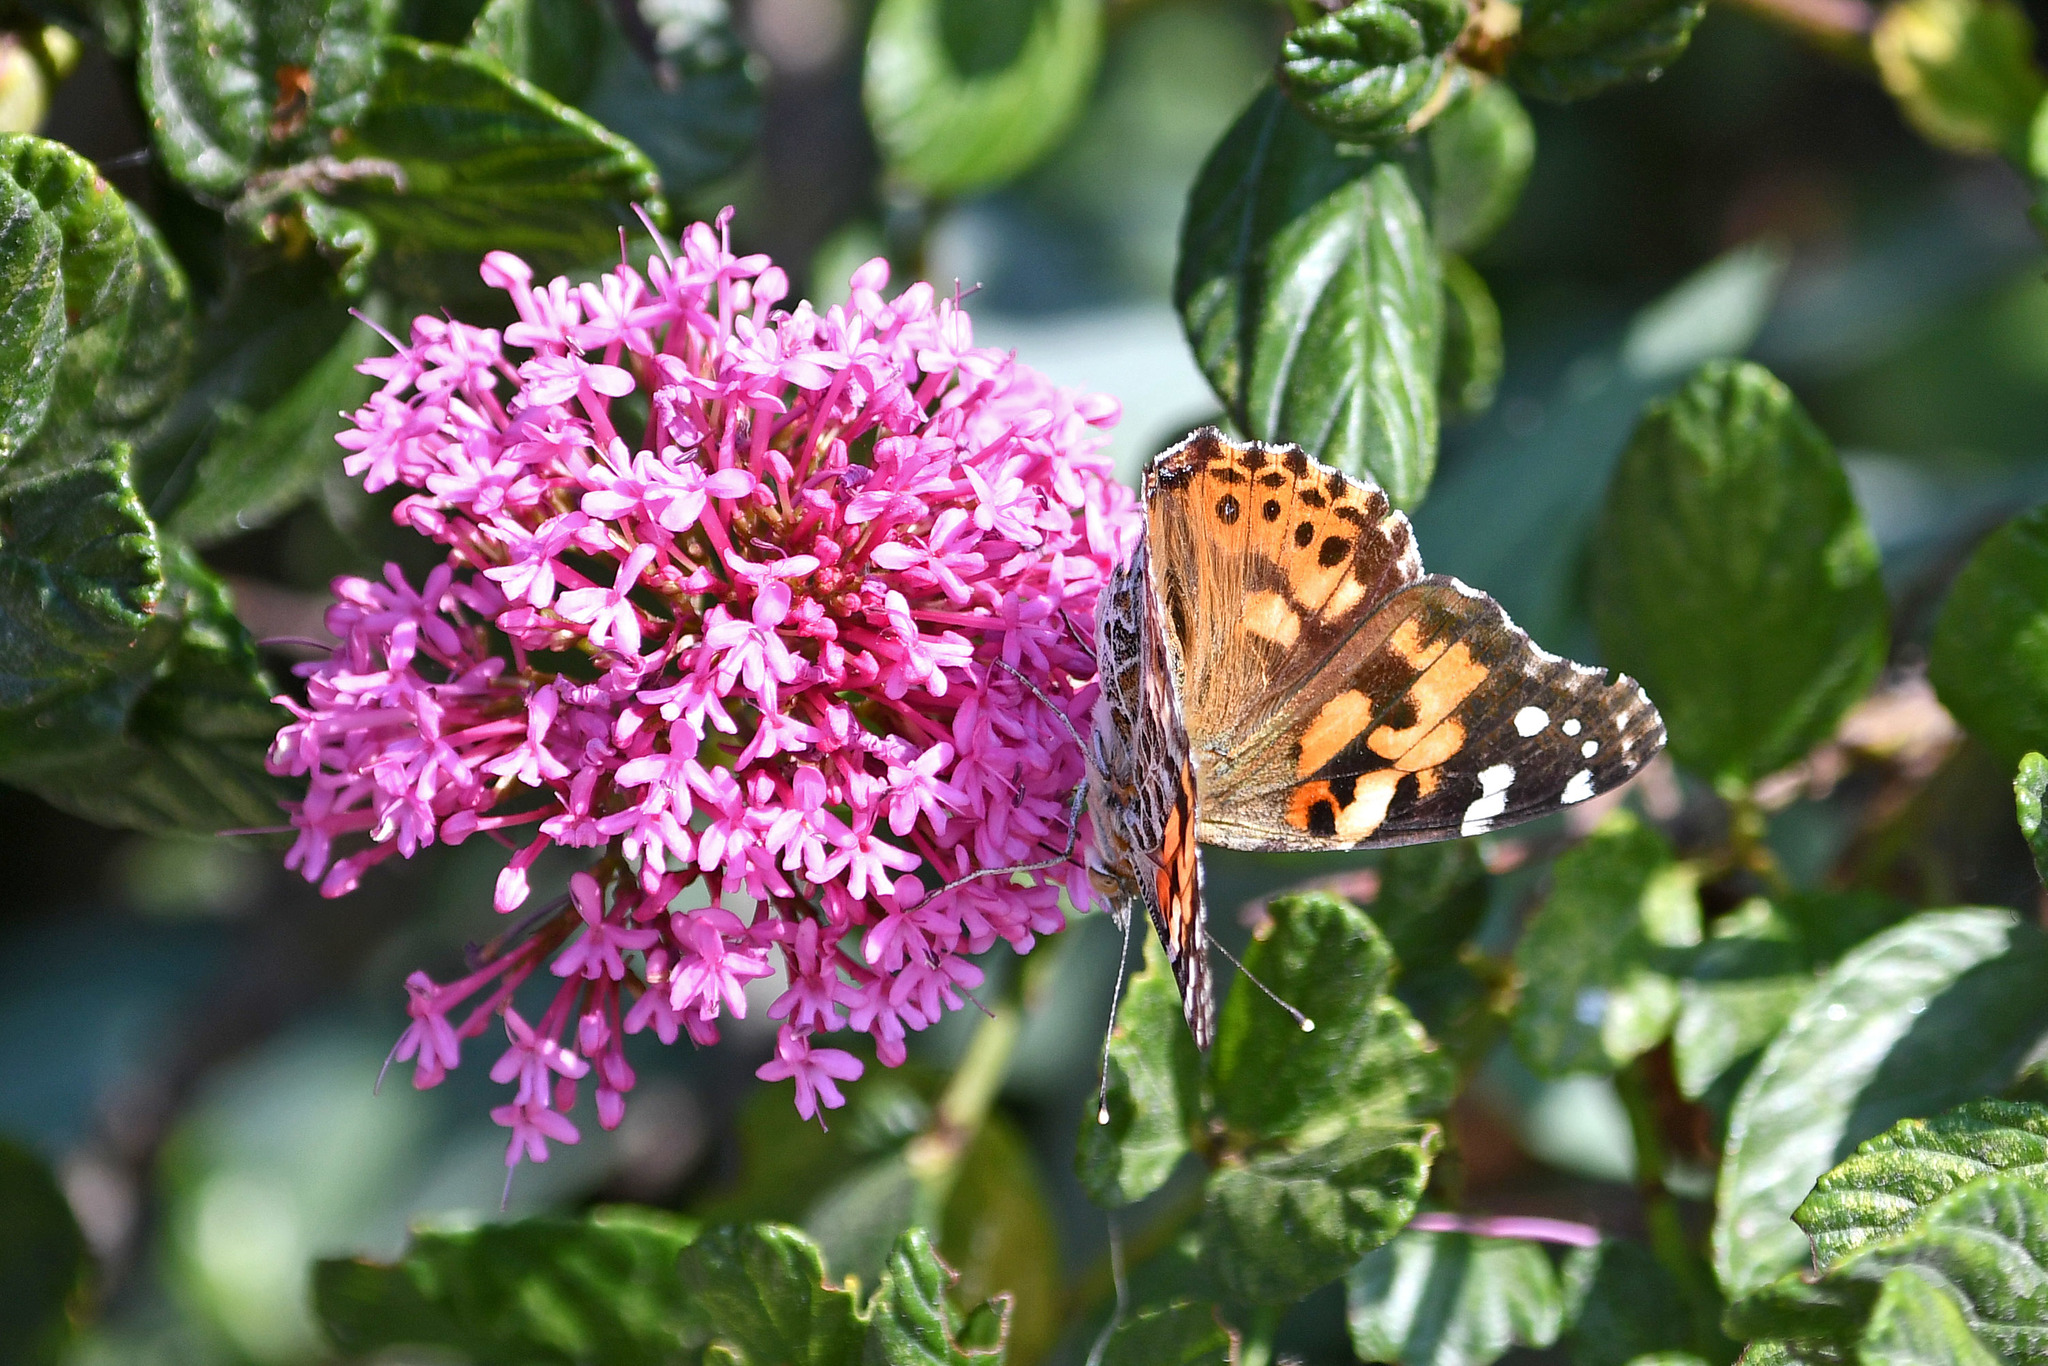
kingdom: Animalia
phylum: Arthropoda
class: Insecta
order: Lepidoptera
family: Nymphalidae
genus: Vanessa
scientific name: Vanessa cardui
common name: Painted lady
